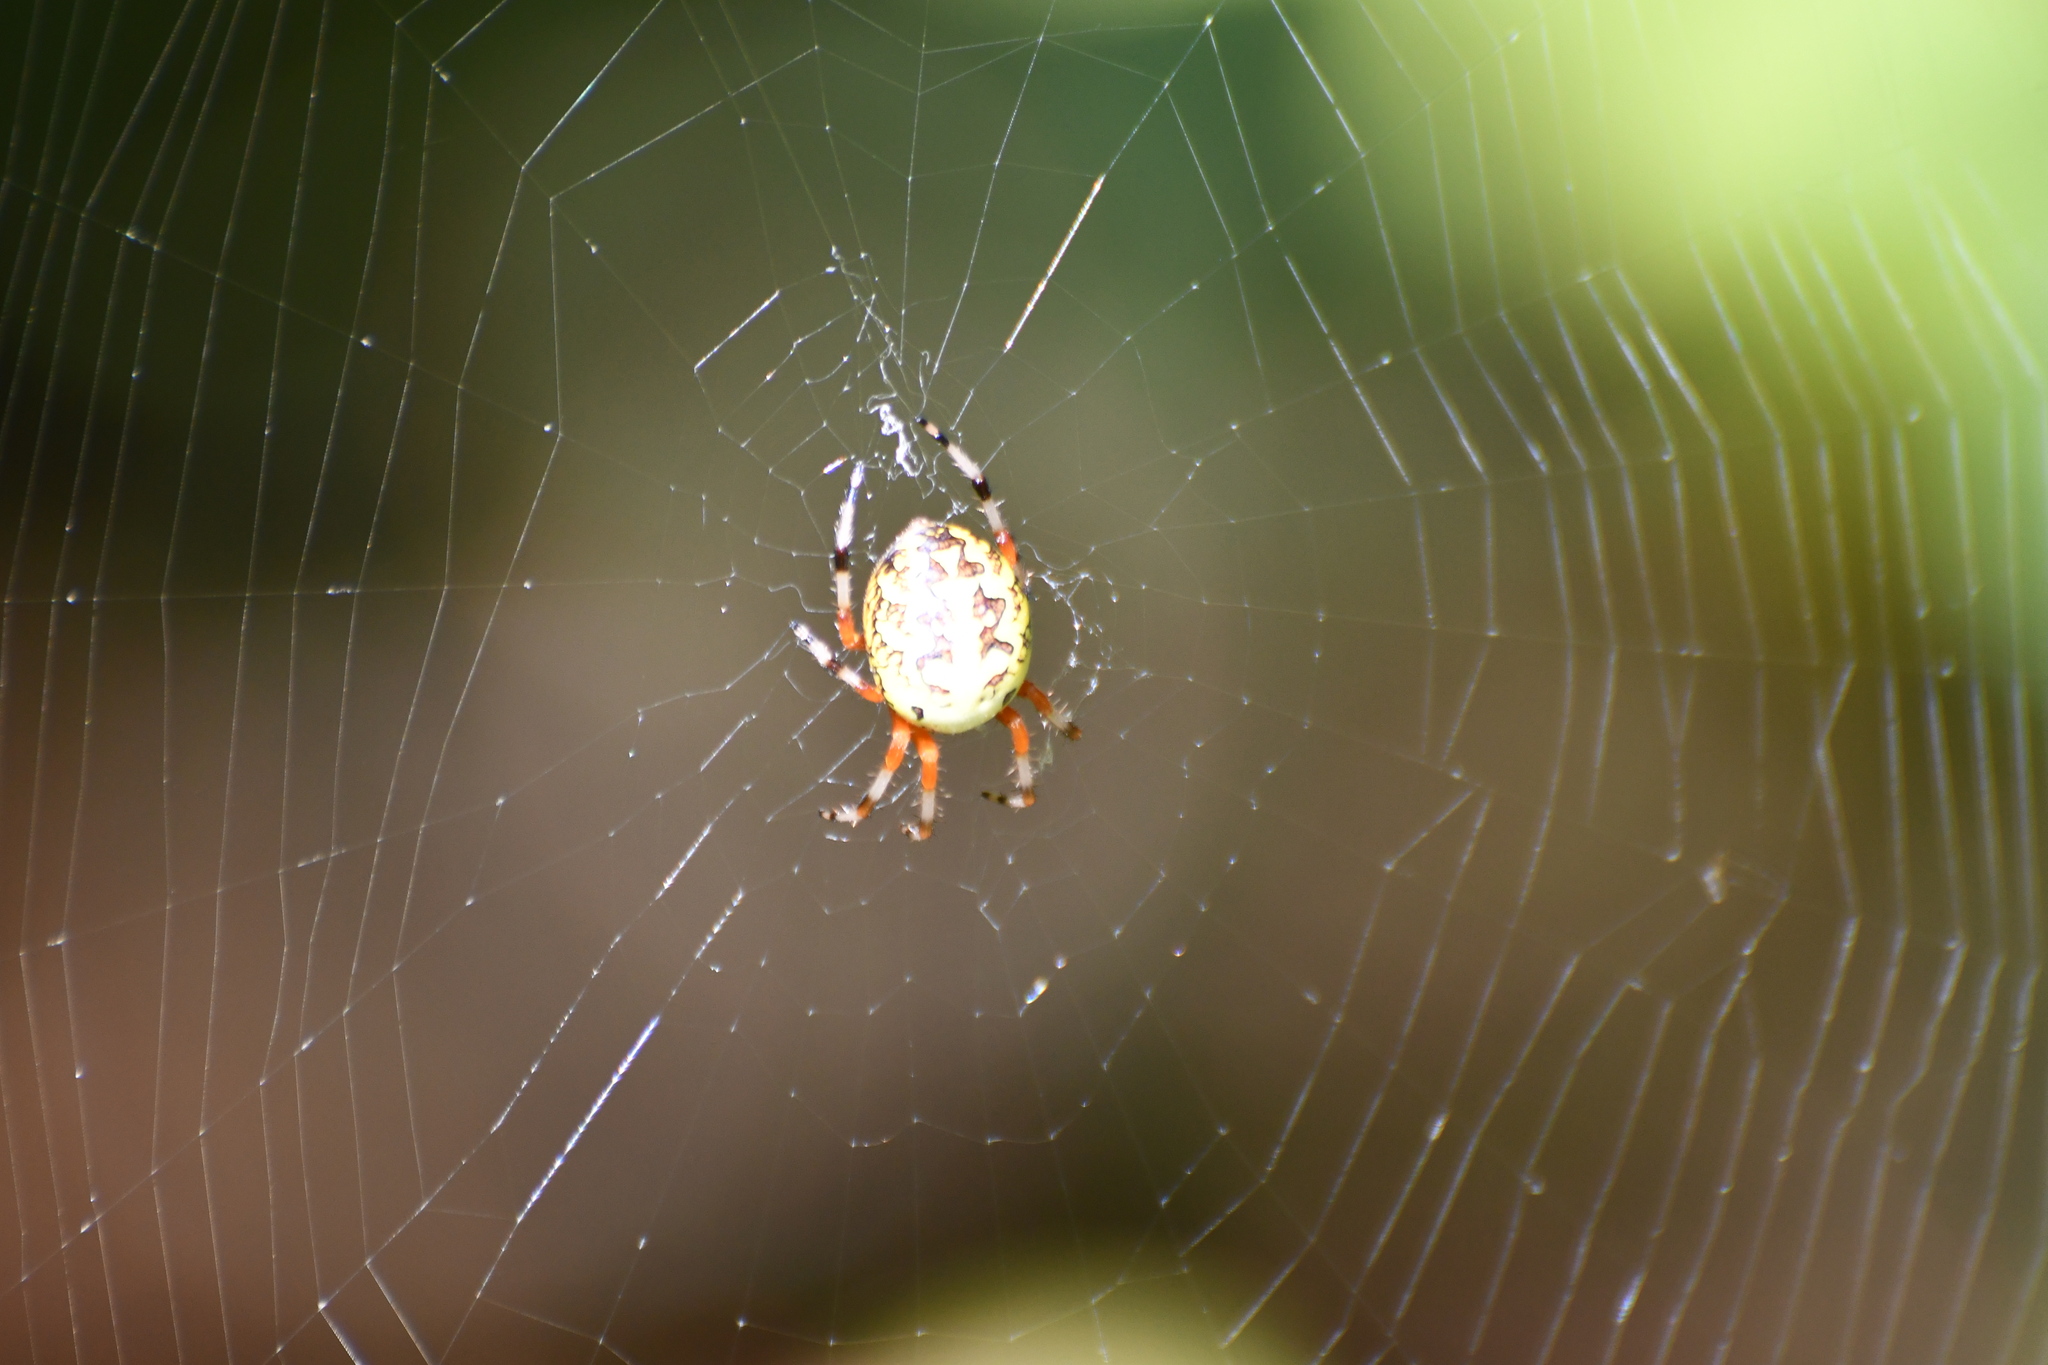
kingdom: Animalia
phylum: Arthropoda
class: Arachnida
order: Araneae
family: Araneidae
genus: Araneus
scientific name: Araneus marmoreus
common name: Marbled orbweaver
